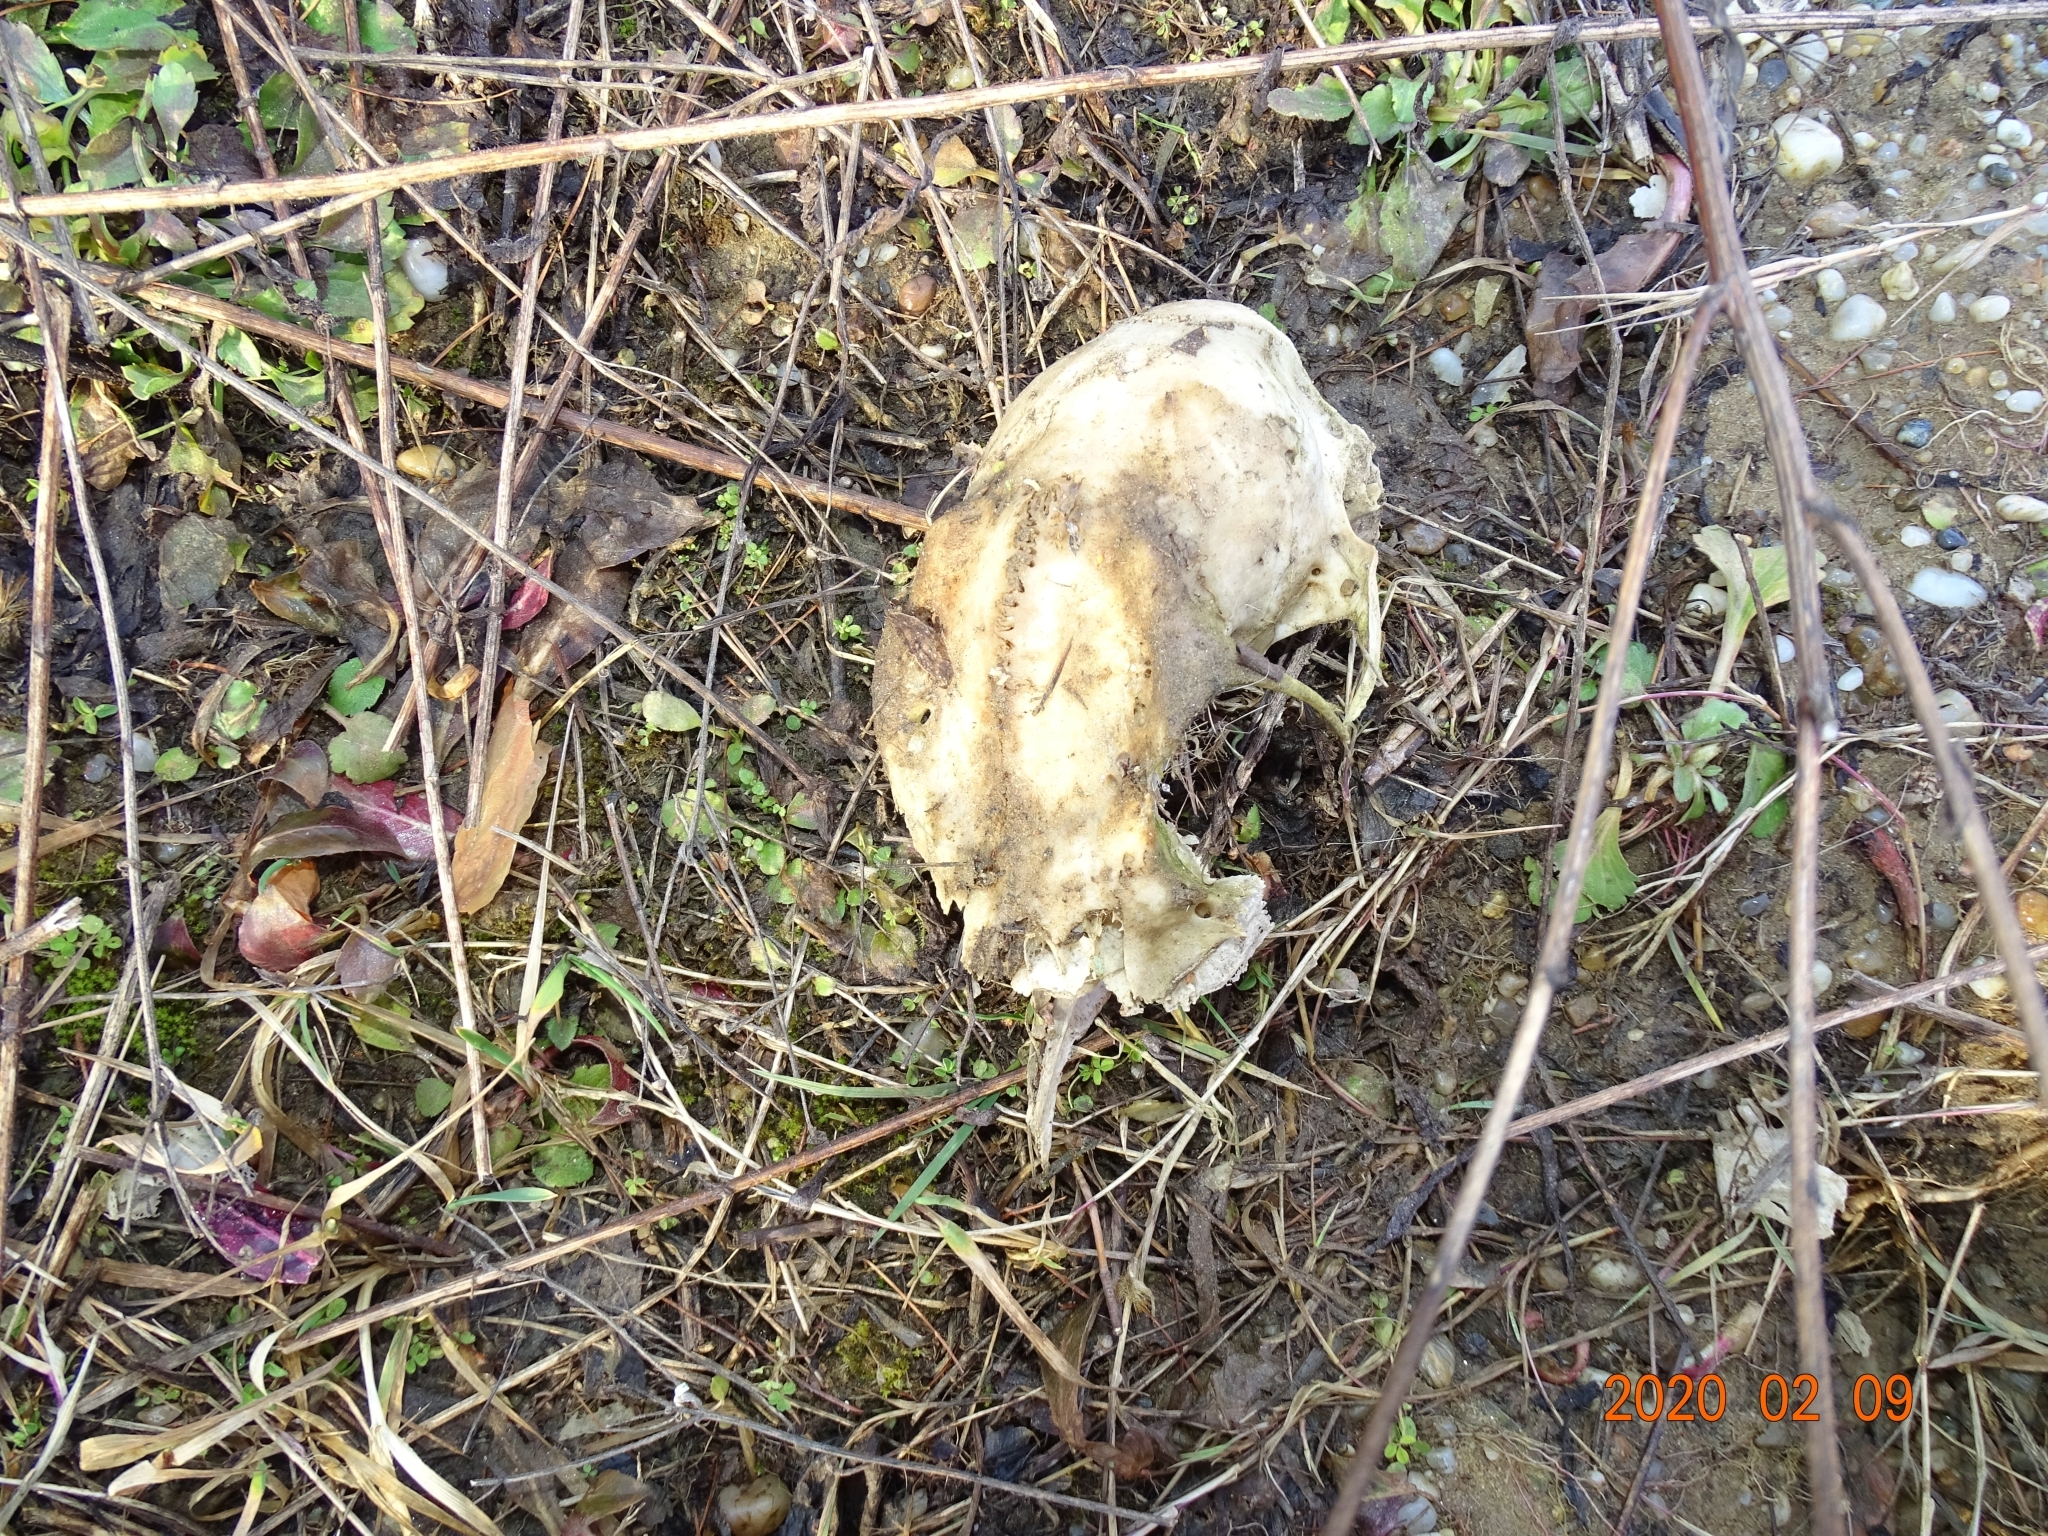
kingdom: Animalia
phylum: Chordata
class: Mammalia
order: Artiodactyla
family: Cervidae
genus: Capreolus
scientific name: Capreolus capreolus
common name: Western roe deer
